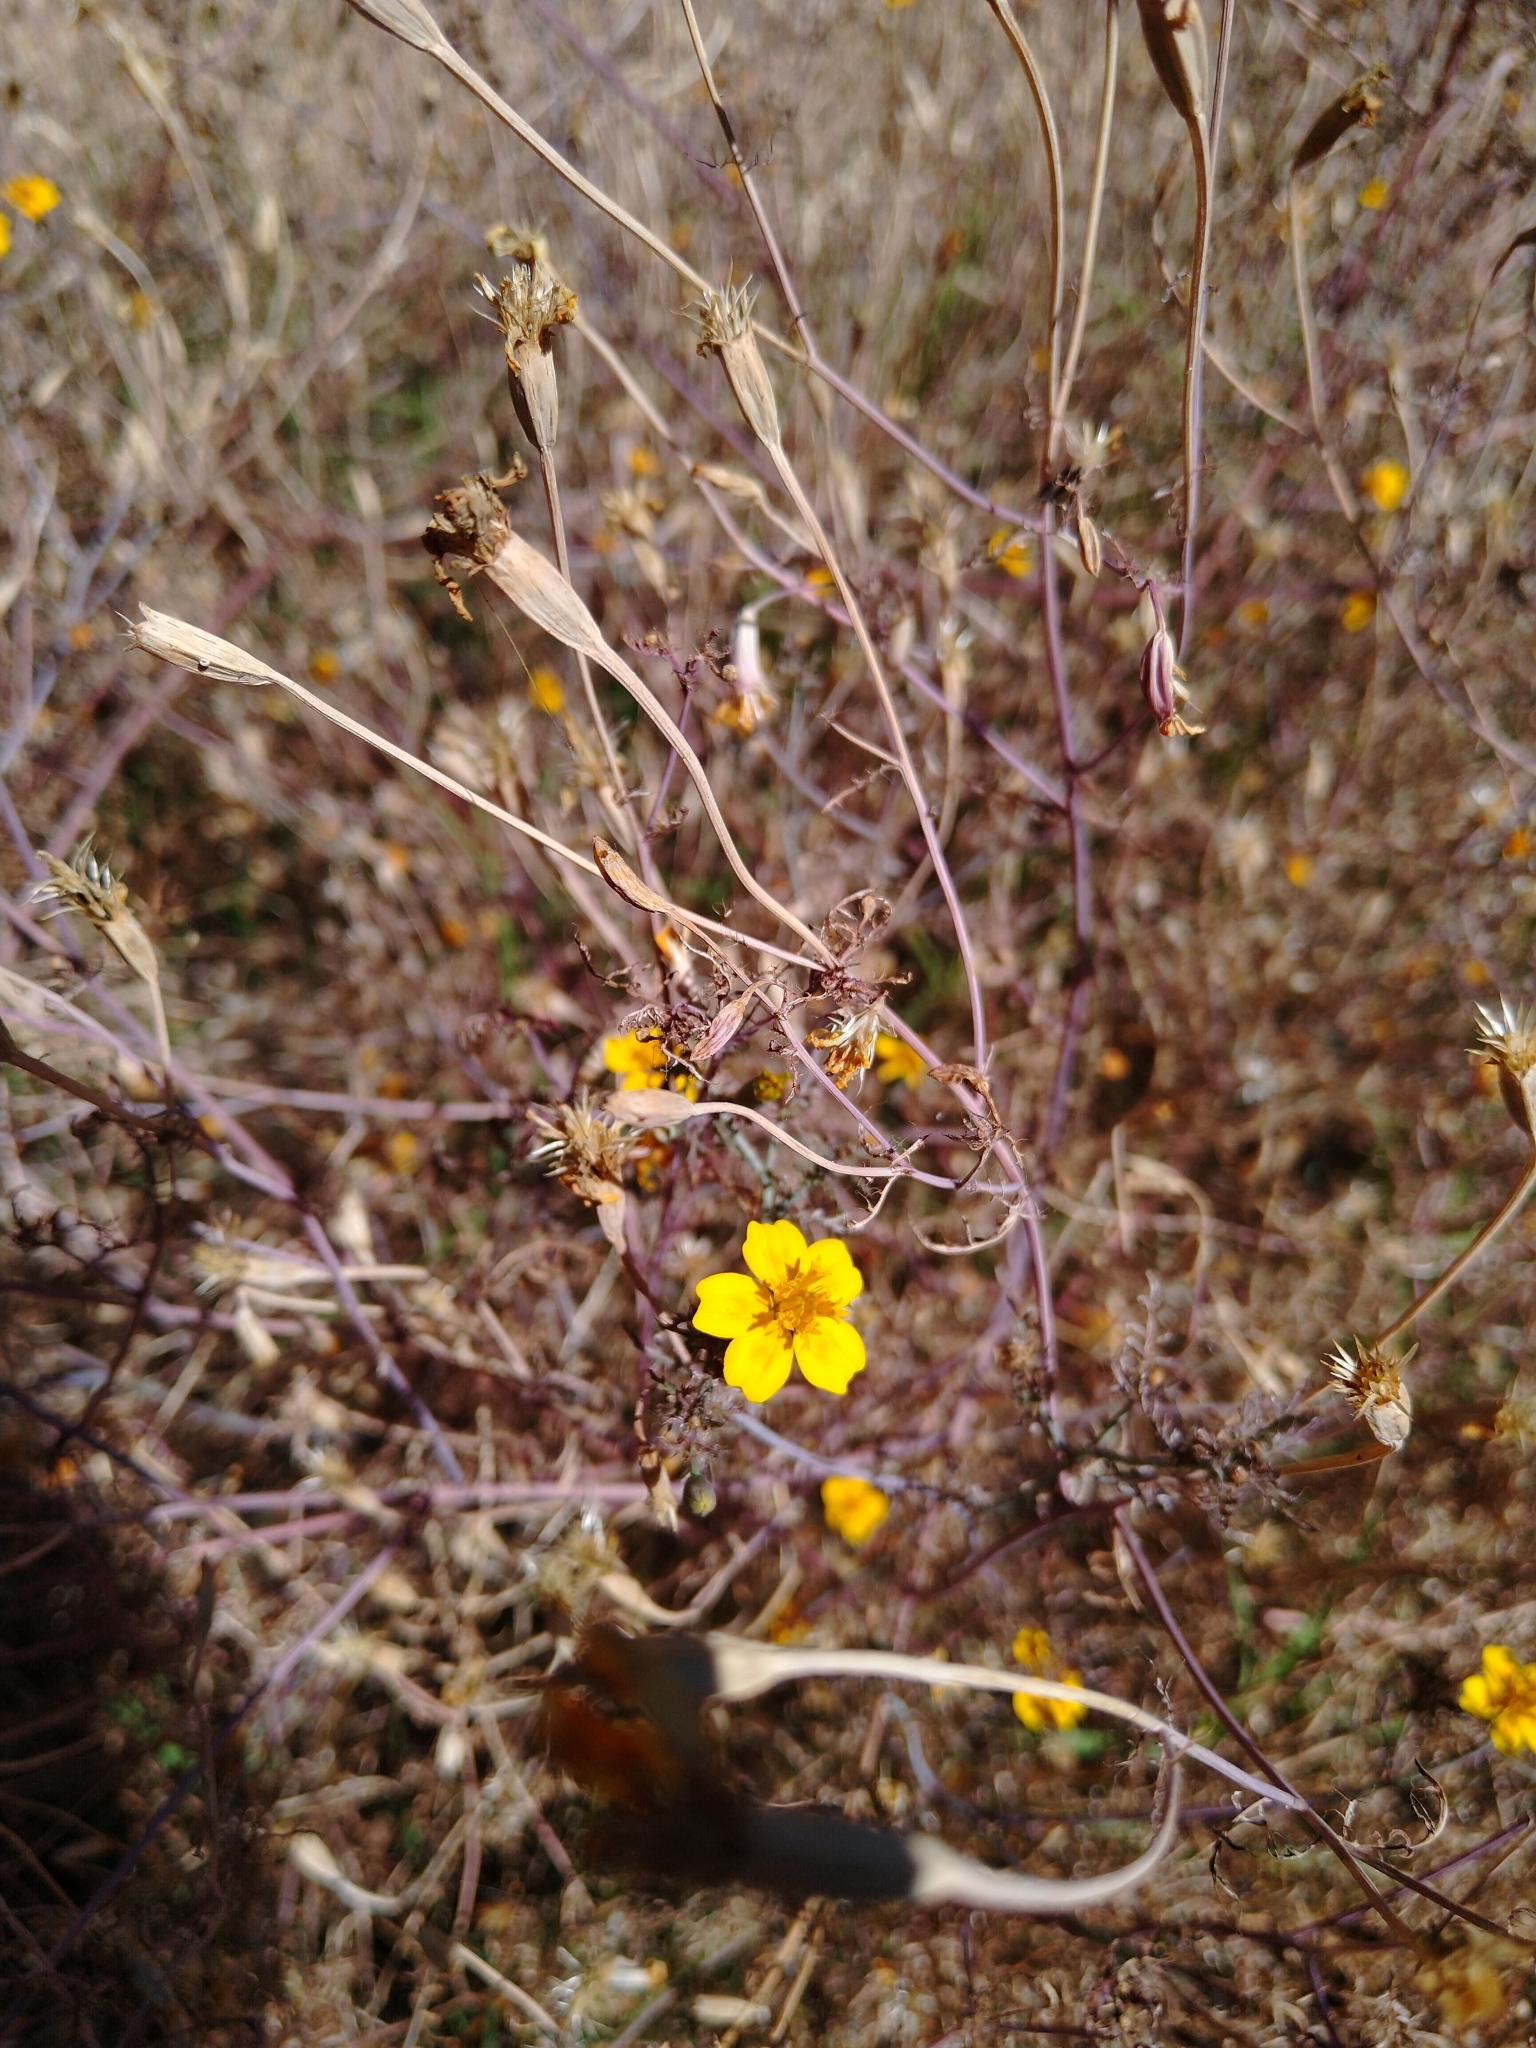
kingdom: Plantae
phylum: Tracheophyta
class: Magnoliopsida
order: Asterales
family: Asteraceae
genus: Tagetes
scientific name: Tagetes lunulata
